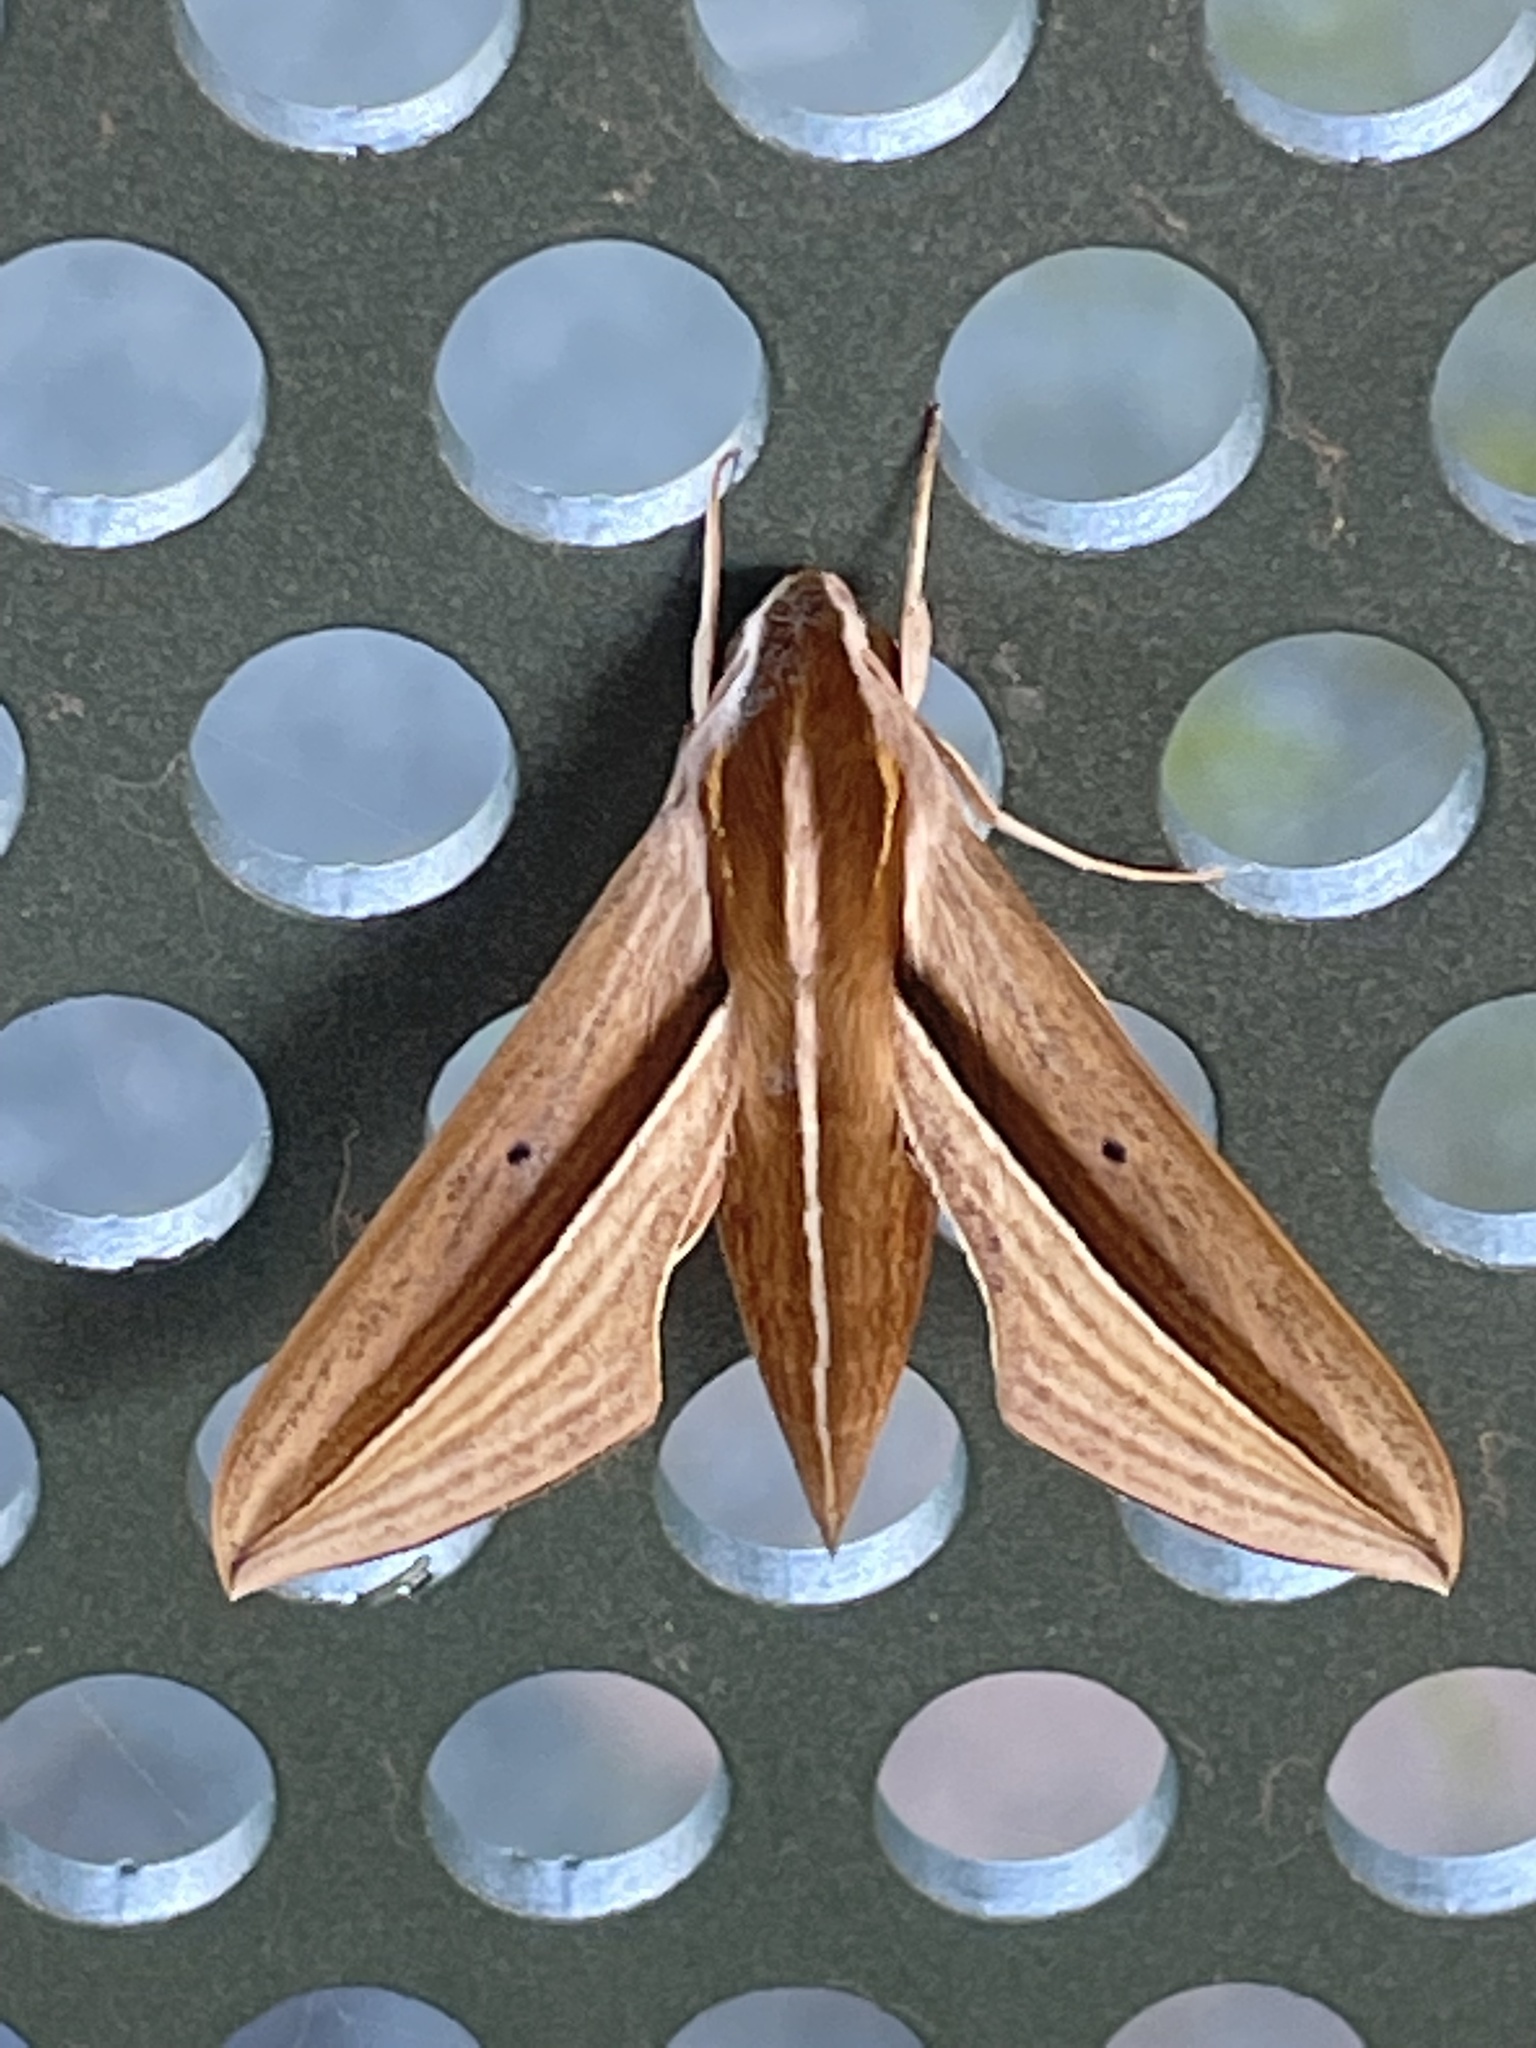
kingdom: Animalia
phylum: Arthropoda
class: Insecta
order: Lepidoptera
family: Sphingidae
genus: Theretra
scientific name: Theretra silhetensis
